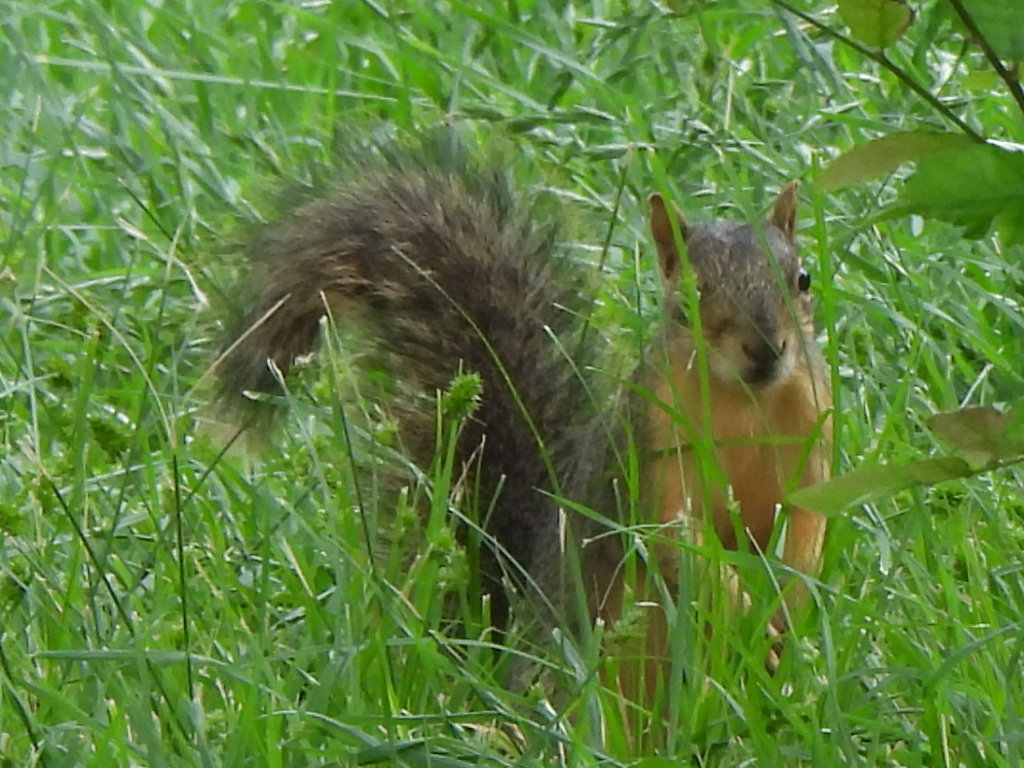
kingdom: Animalia
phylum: Chordata
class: Mammalia
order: Rodentia
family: Sciuridae
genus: Sciurus
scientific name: Sciurus niger
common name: Fox squirrel
